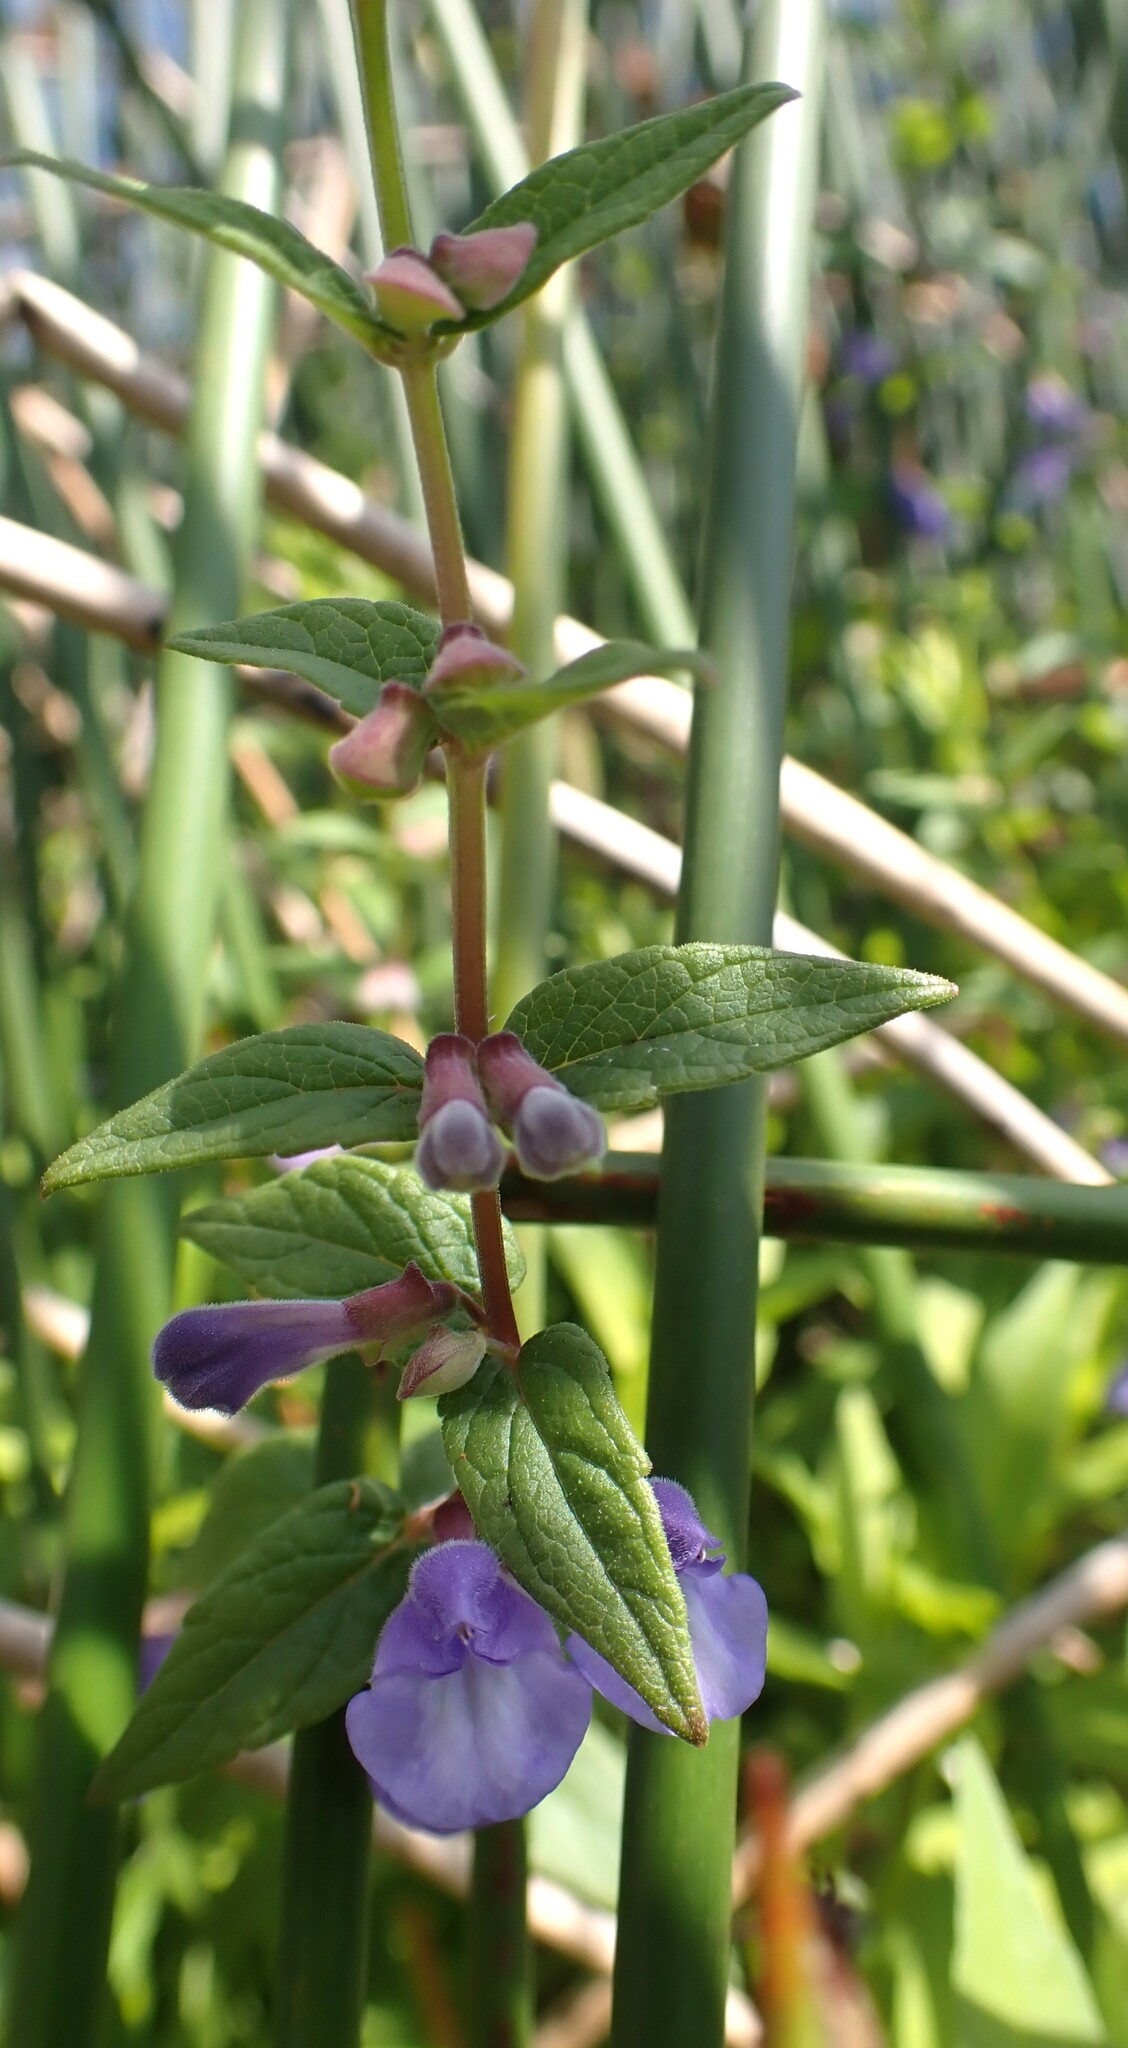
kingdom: Plantae
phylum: Tracheophyta
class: Magnoliopsida
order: Lamiales
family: Lamiaceae
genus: Scutellaria
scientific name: Scutellaria galericulata
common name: Skullcap
